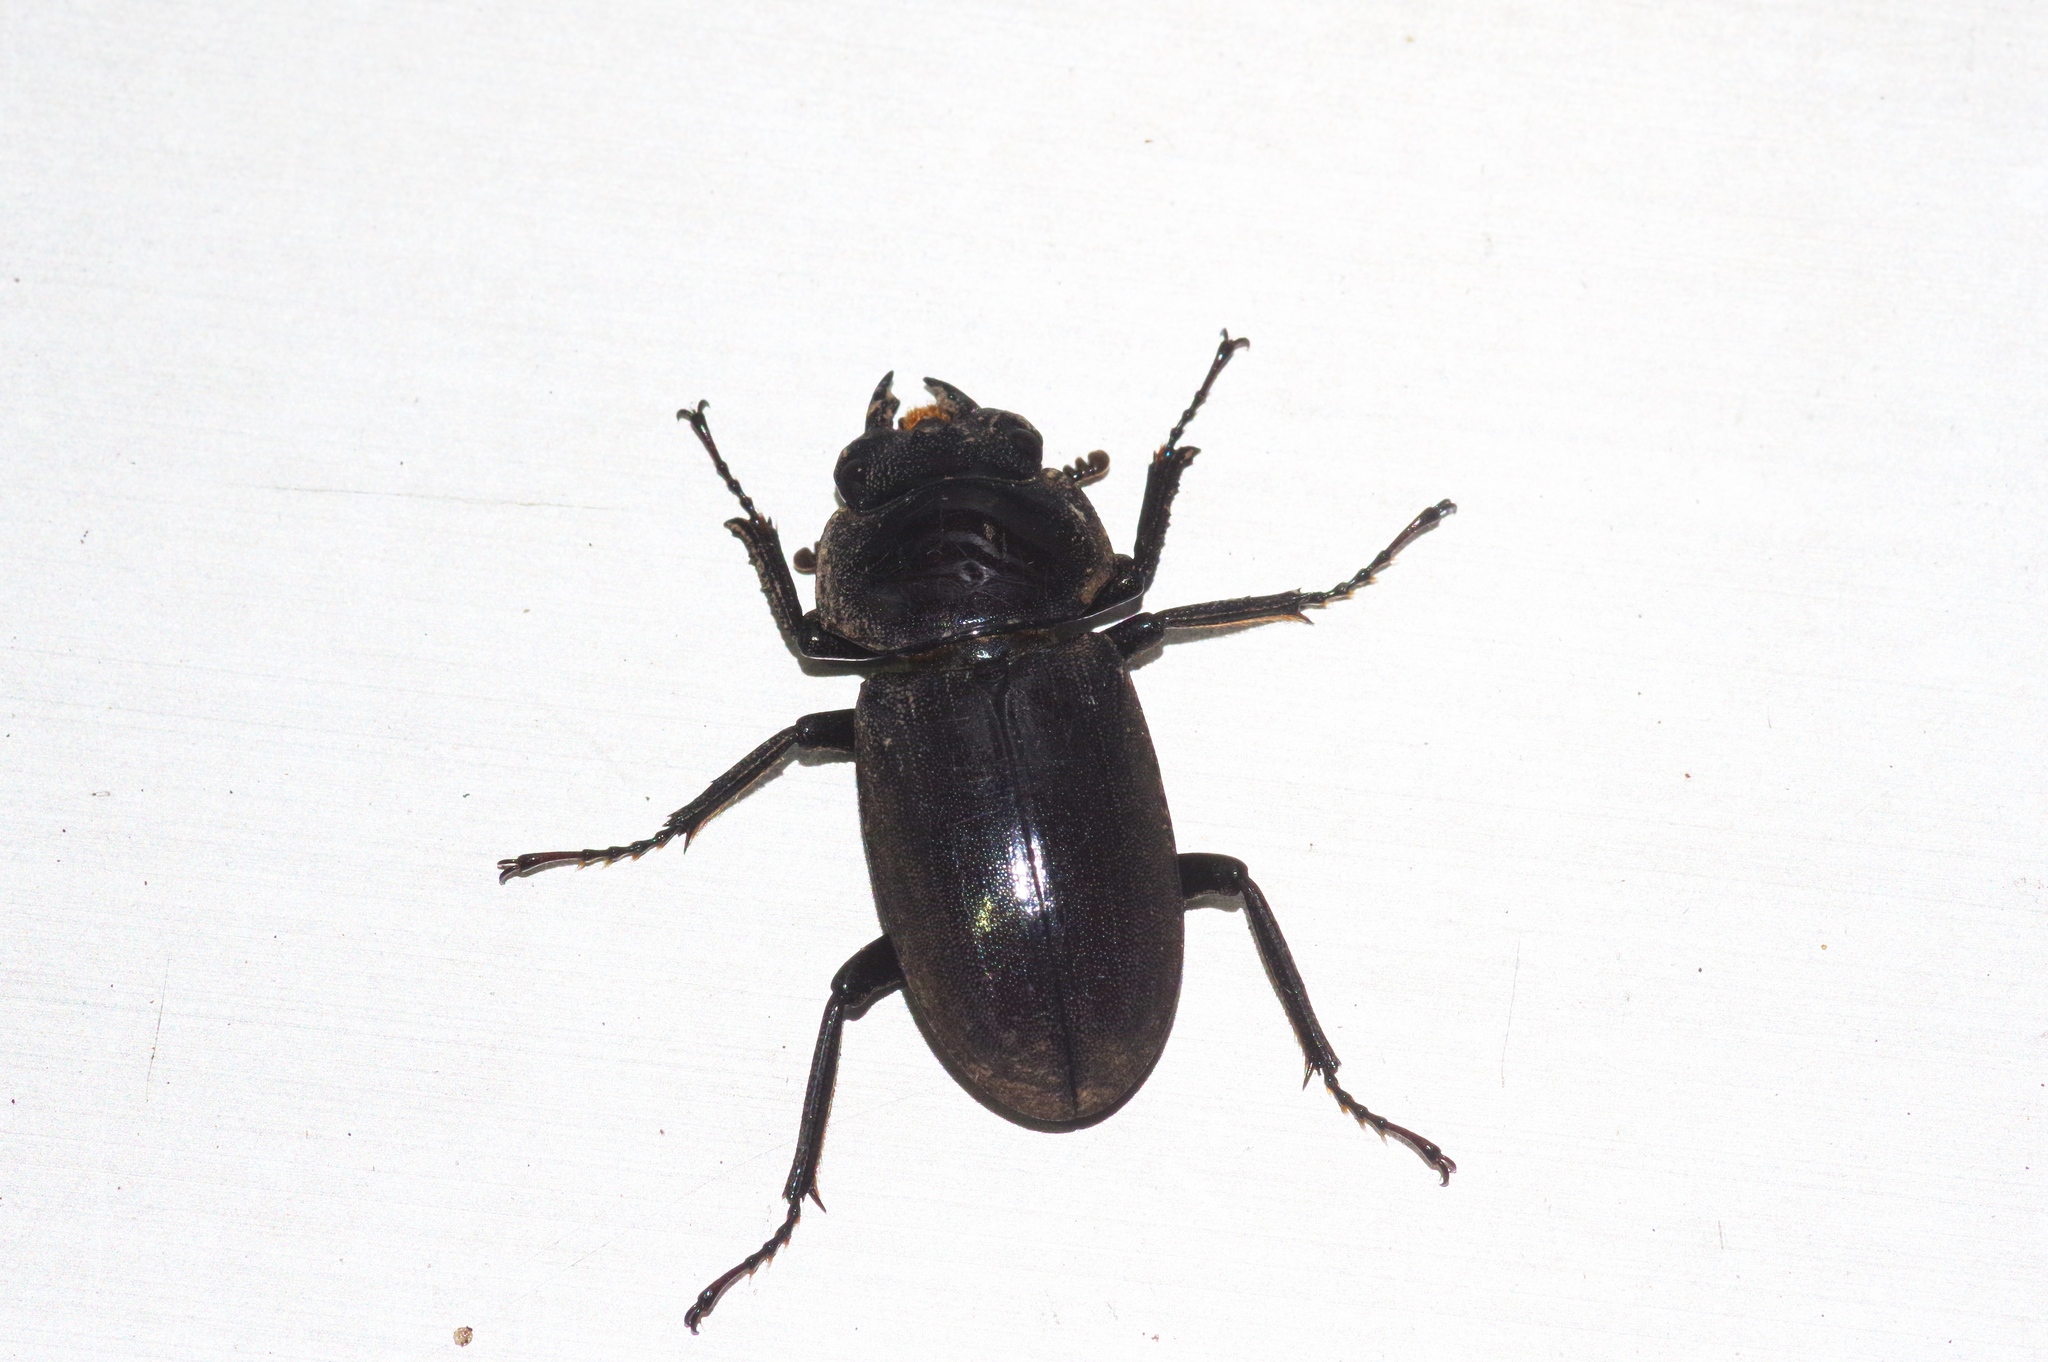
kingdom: Animalia
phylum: Arthropoda
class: Insecta
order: Coleoptera
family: Lucanidae
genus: Dorcus
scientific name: Dorcus amamianus
